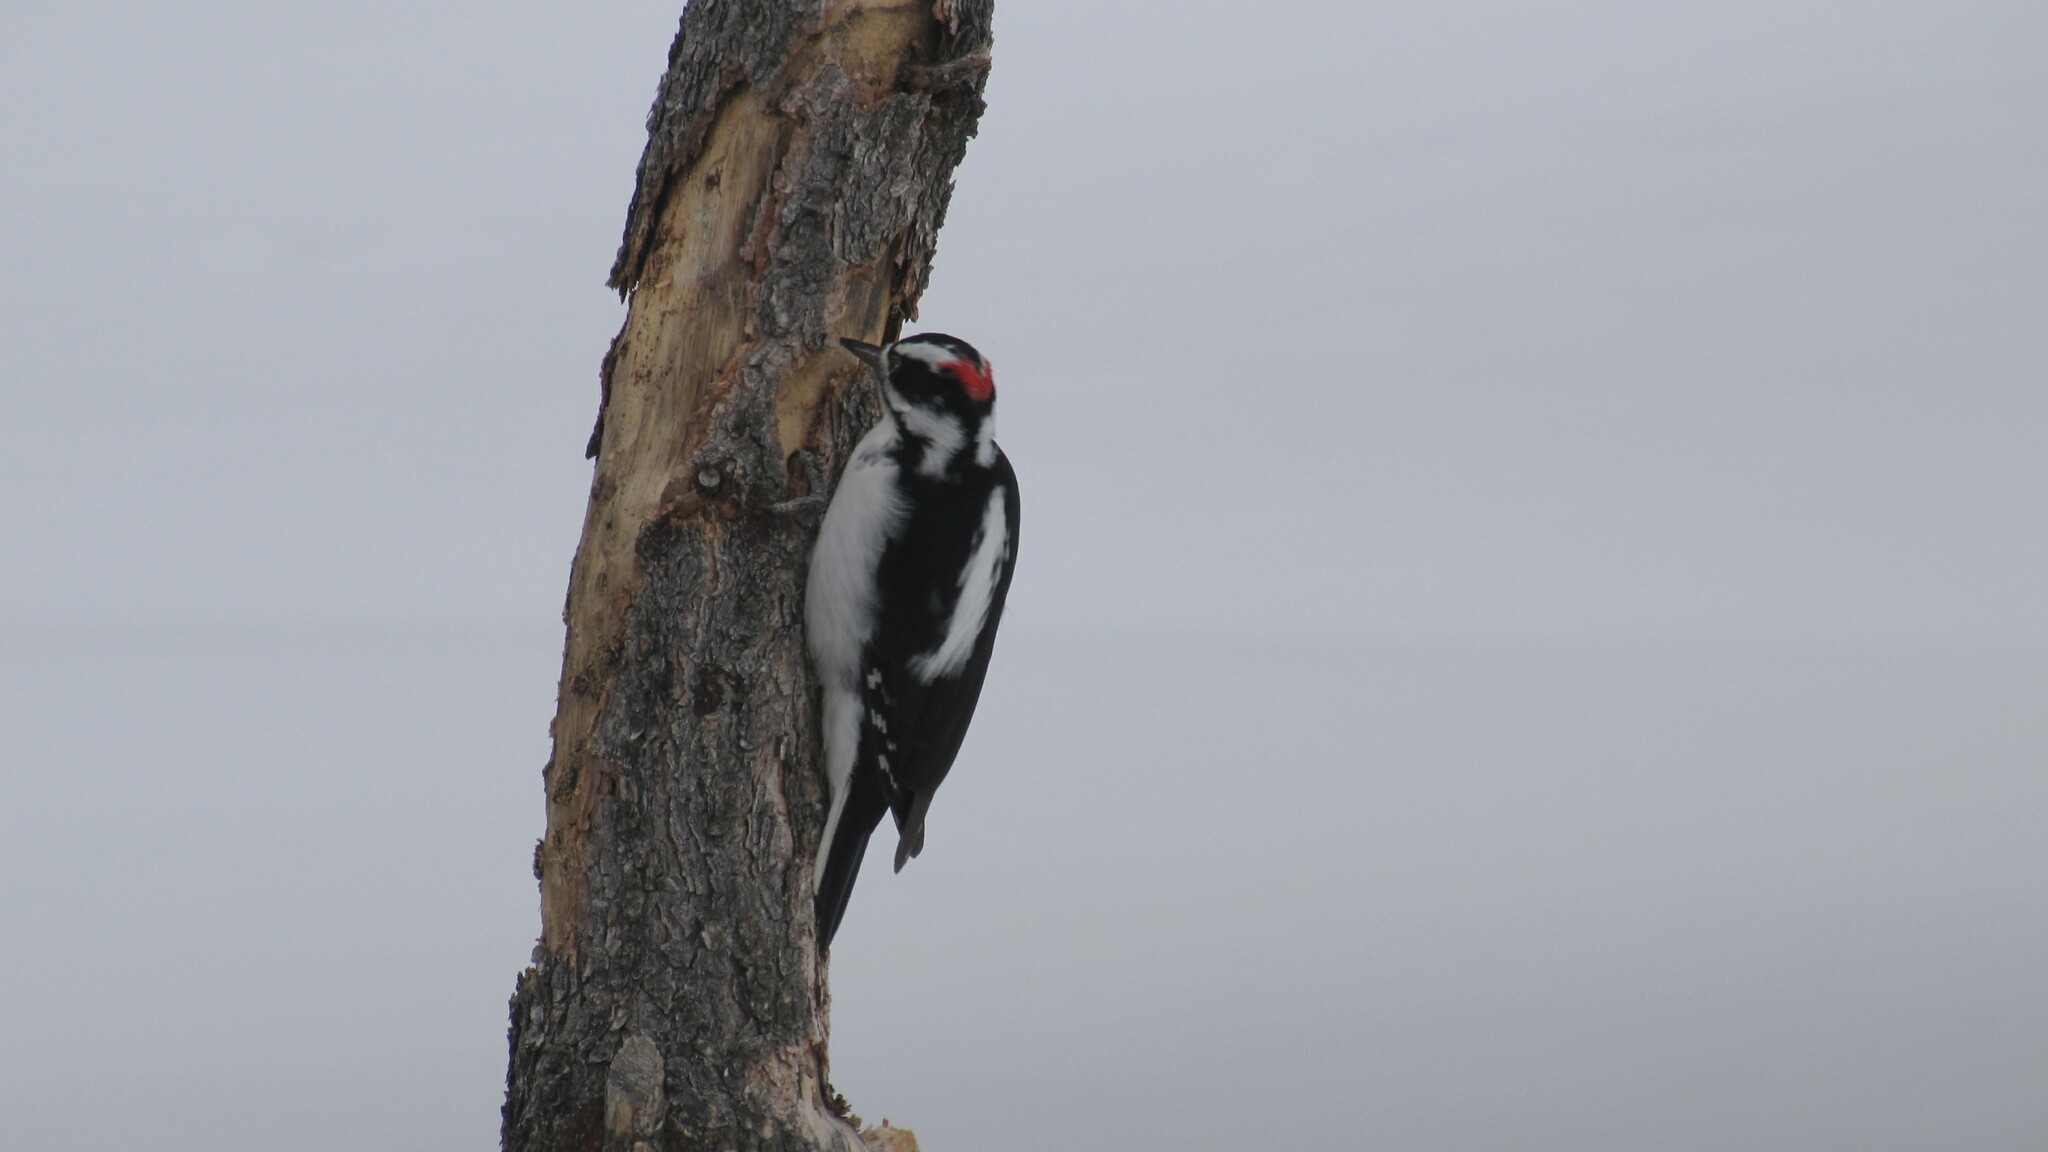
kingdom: Animalia
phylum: Chordata
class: Aves
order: Piciformes
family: Picidae
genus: Leuconotopicus
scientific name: Leuconotopicus villosus
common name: Hairy woodpecker
